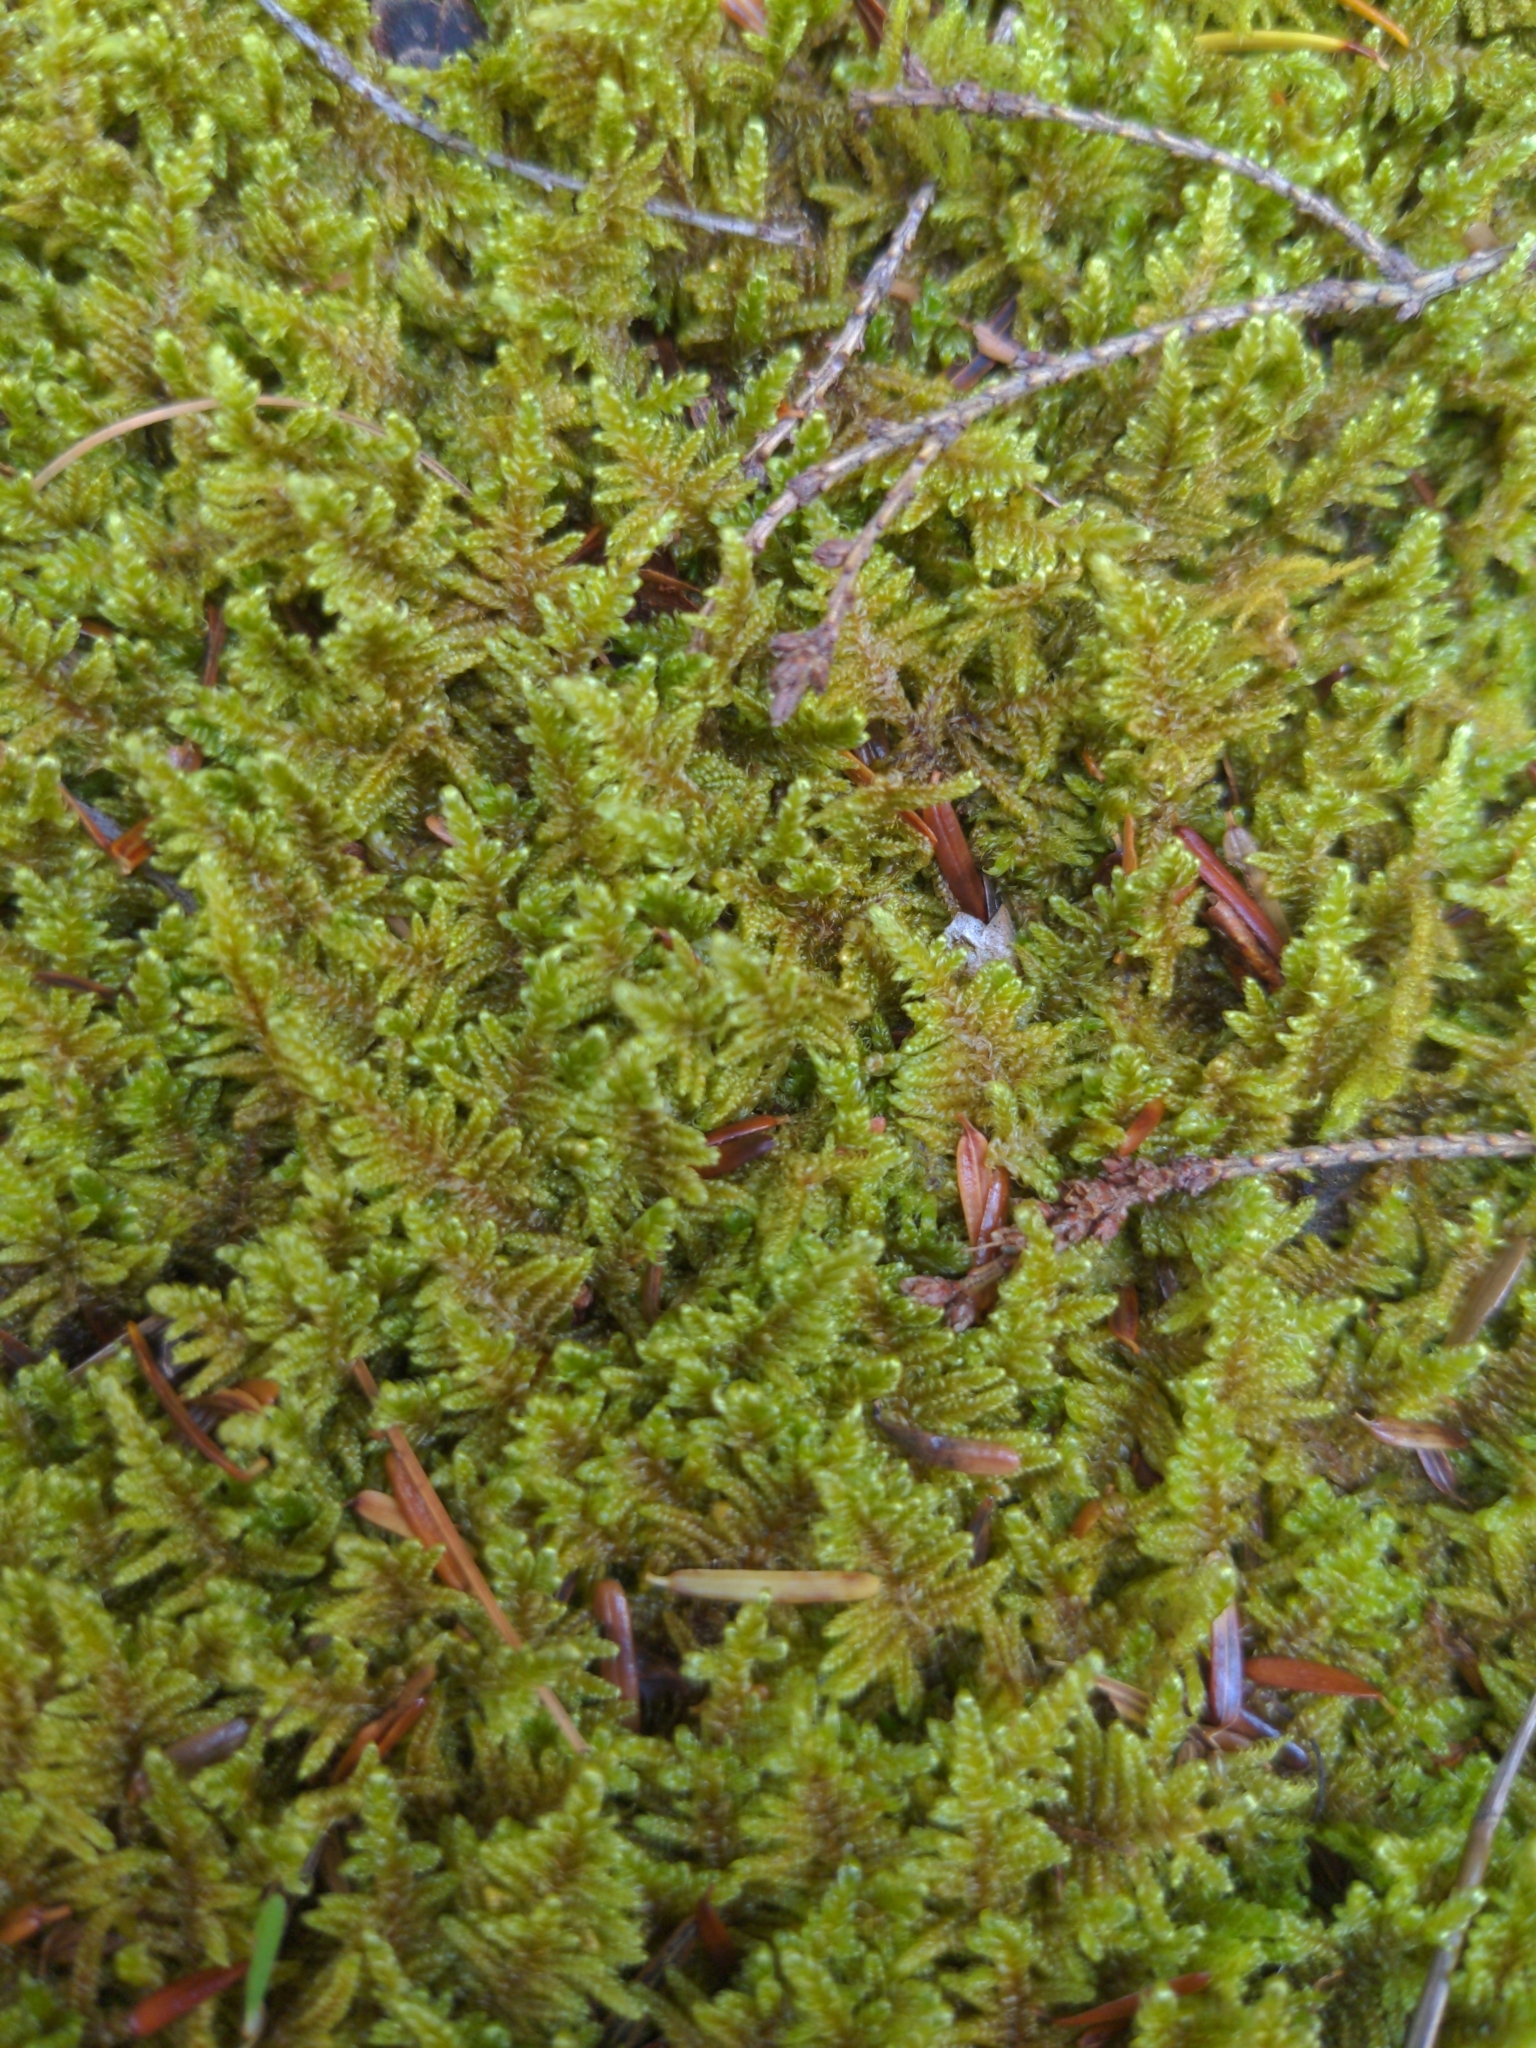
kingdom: Plantae
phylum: Bryophyta
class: Bryopsida
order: Hypnales
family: Callicladiaceae
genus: Callicladium
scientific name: Callicladium imponens
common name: Brocade moss
